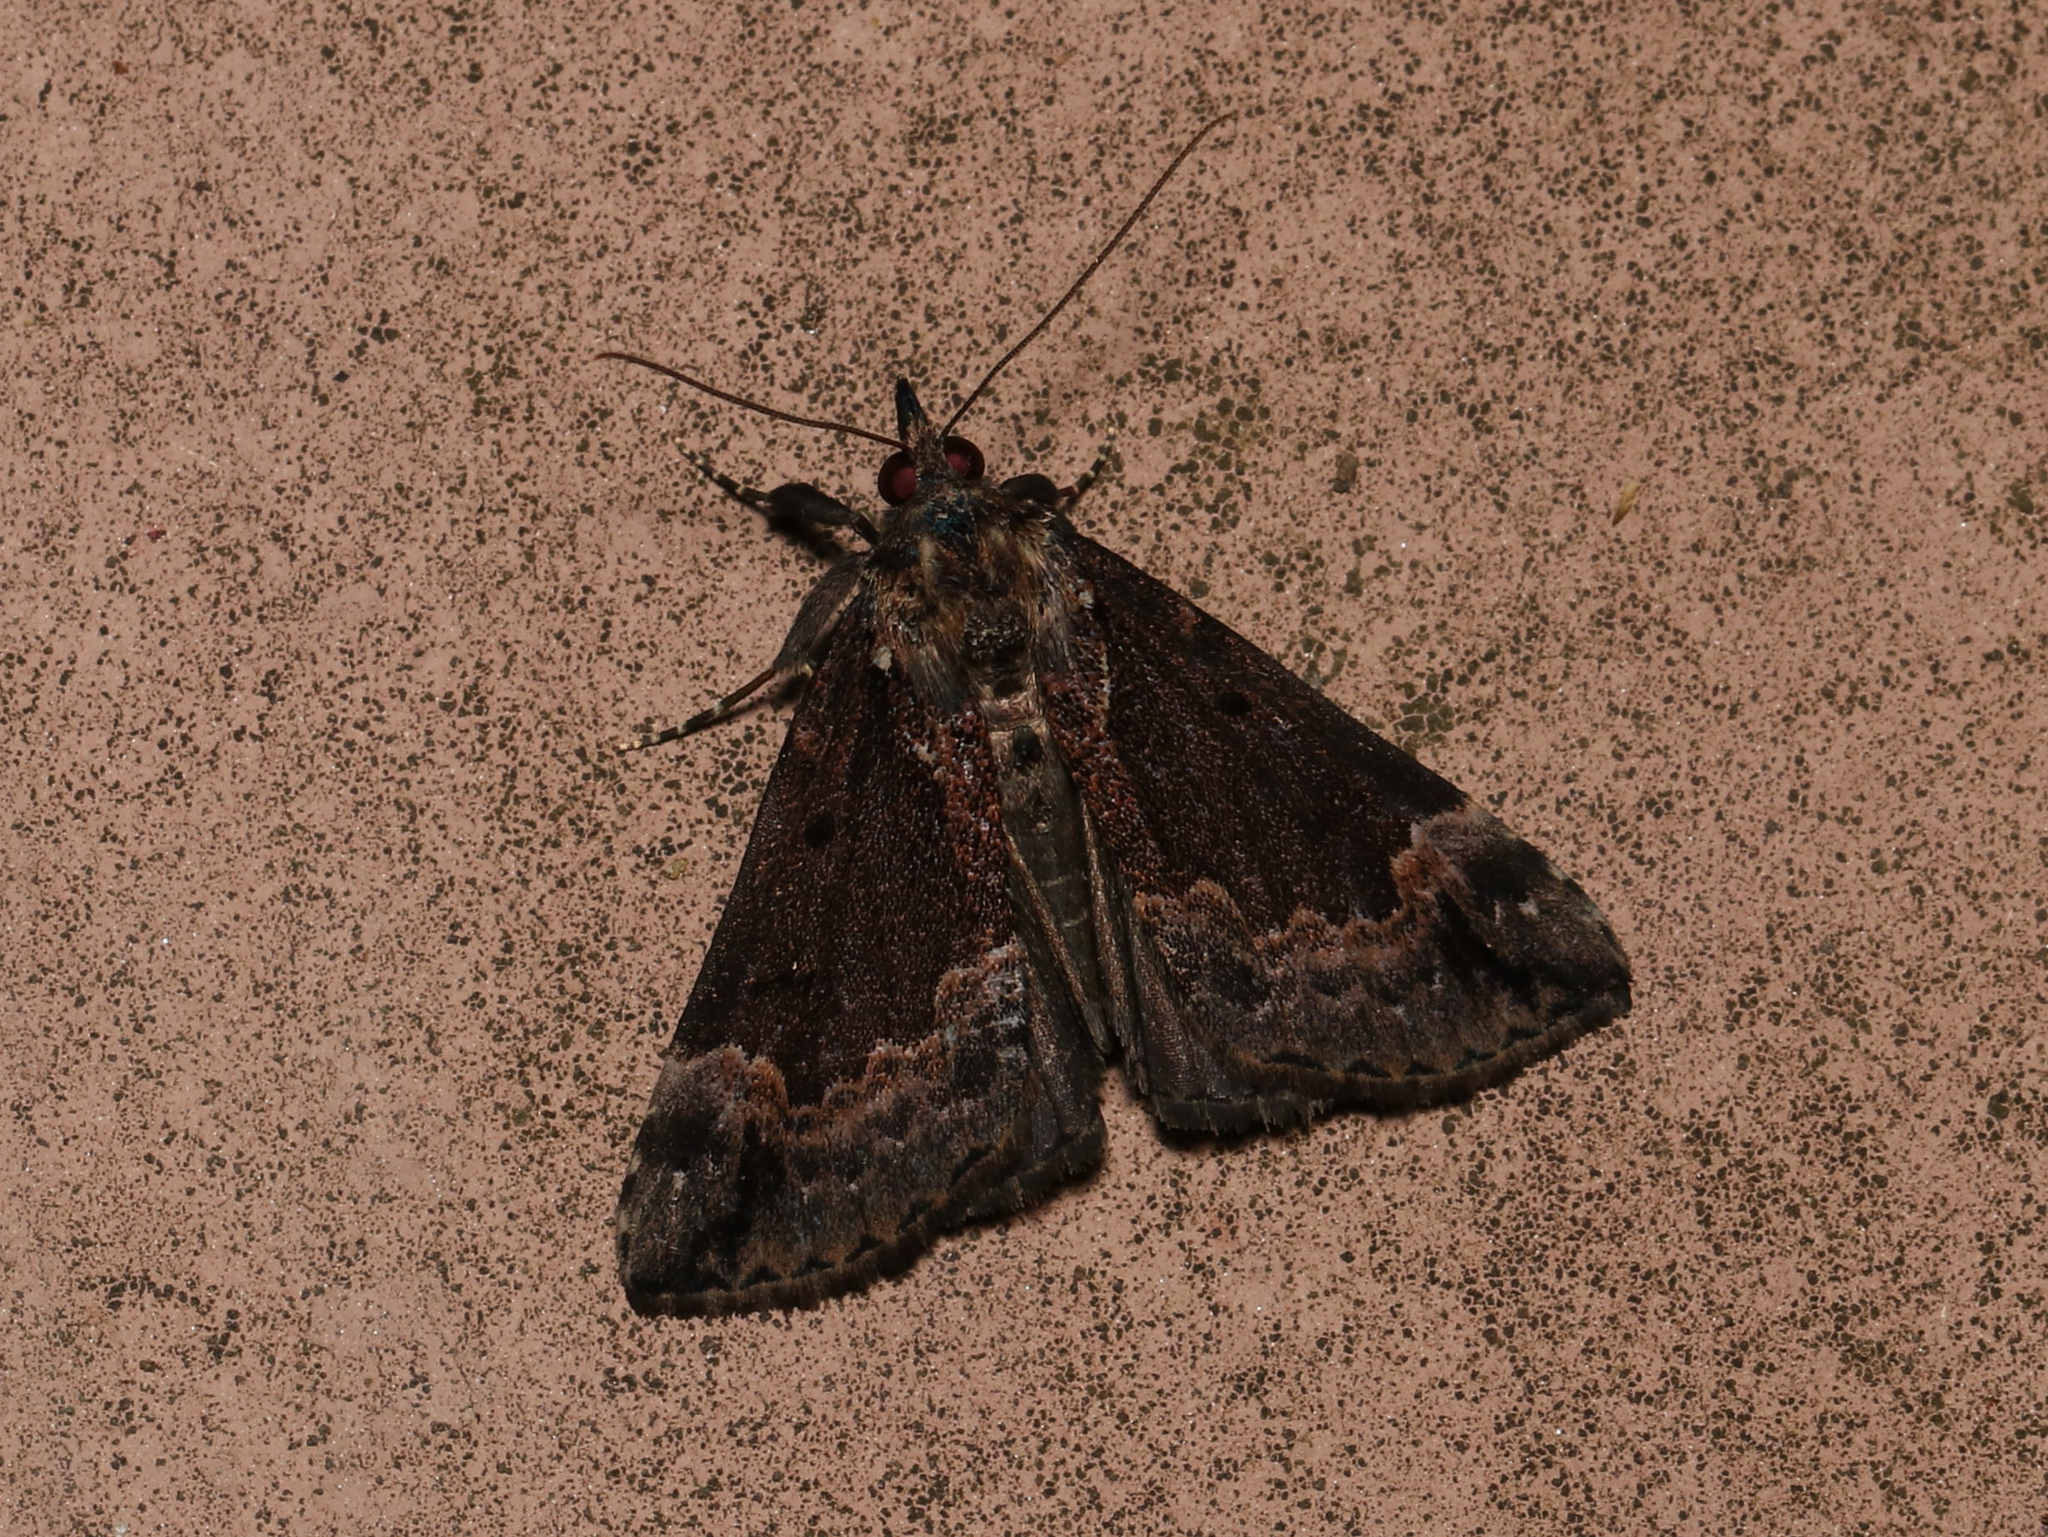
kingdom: Animalia
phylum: Arthropoda
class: Insecta
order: Lepidoptera
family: Erebidae
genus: Hypena
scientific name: Hypena baltimoralis
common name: Baltimore snout
